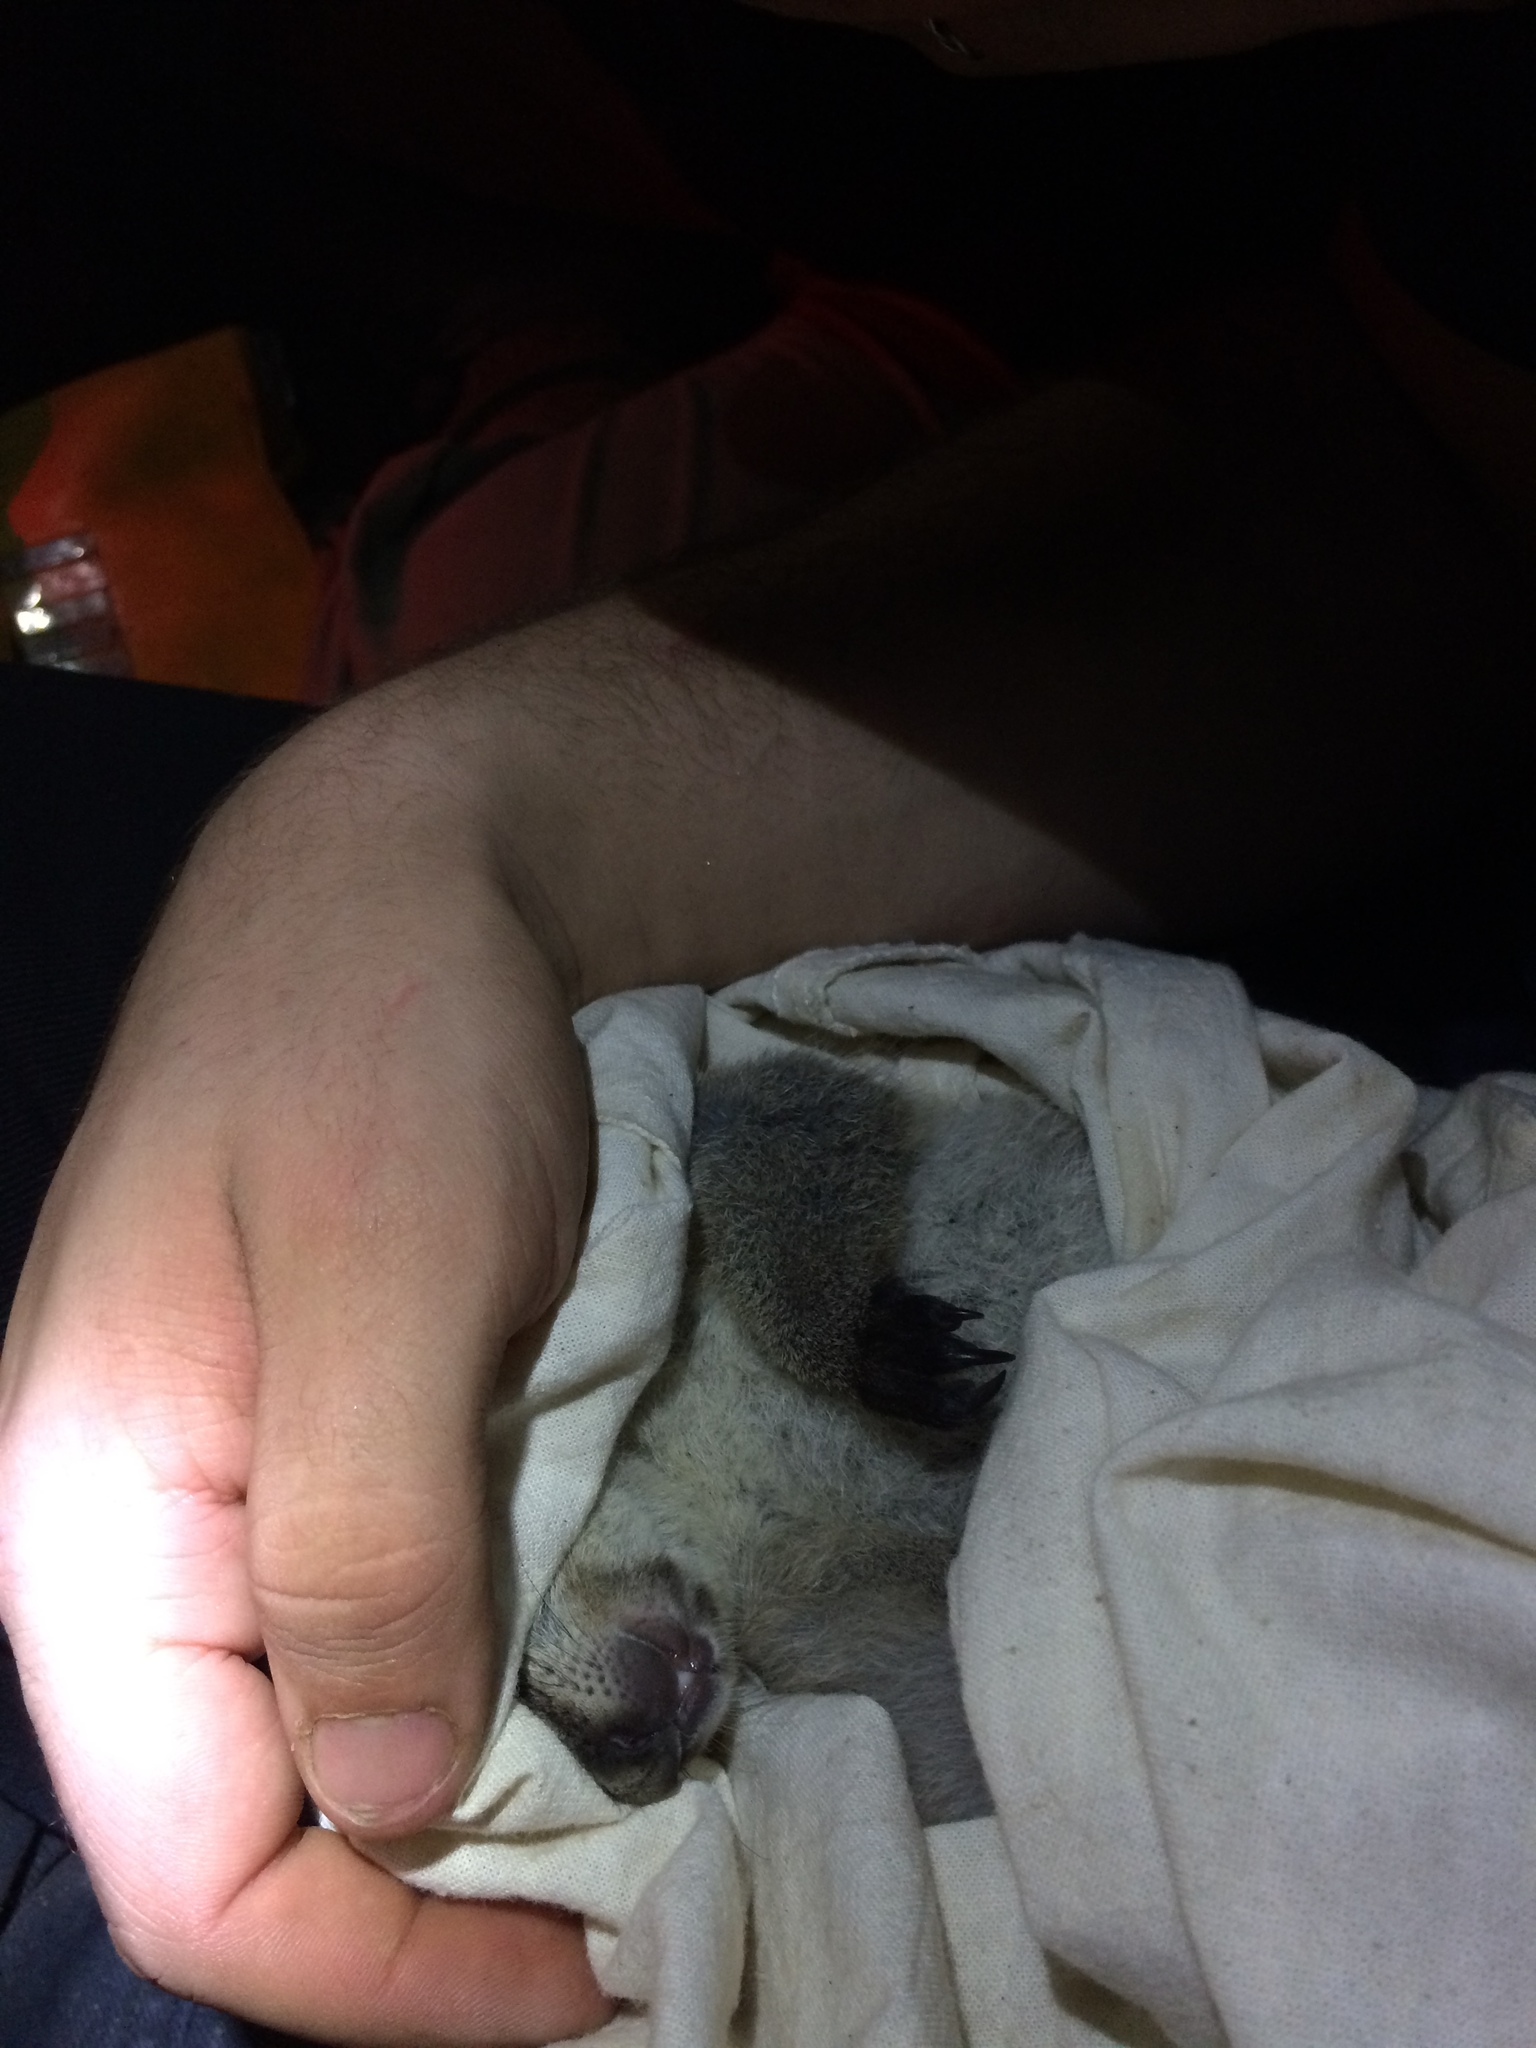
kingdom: Animalia
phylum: Chordata
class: Mammalia
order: Diprotodontia
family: Macropodidae
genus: Onychogalea
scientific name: Onychogalea fraenata
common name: Bridled nail-tail wallaby
